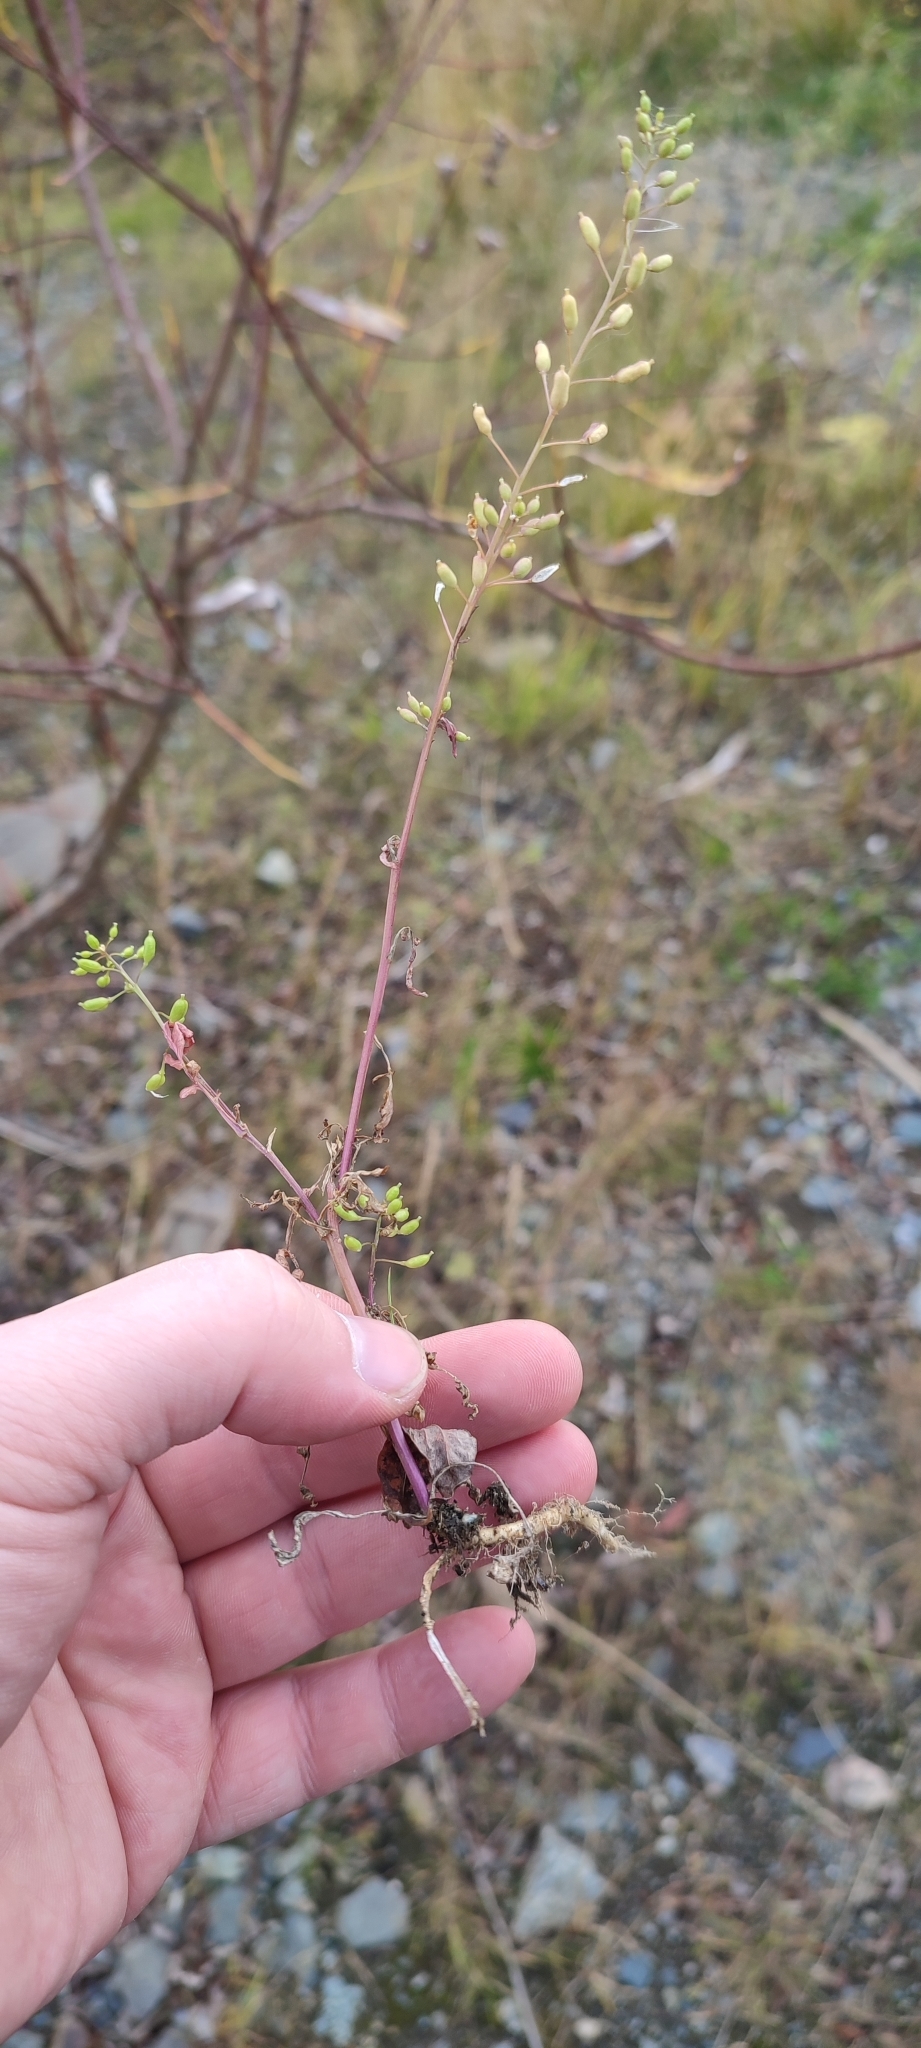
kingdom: Plantae
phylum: Tracheophyta
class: Magnoliopsida
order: Brassicales
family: Brassicaceae
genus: Rorippa
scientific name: Rorippa palustris
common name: Marsh yellow-cress
